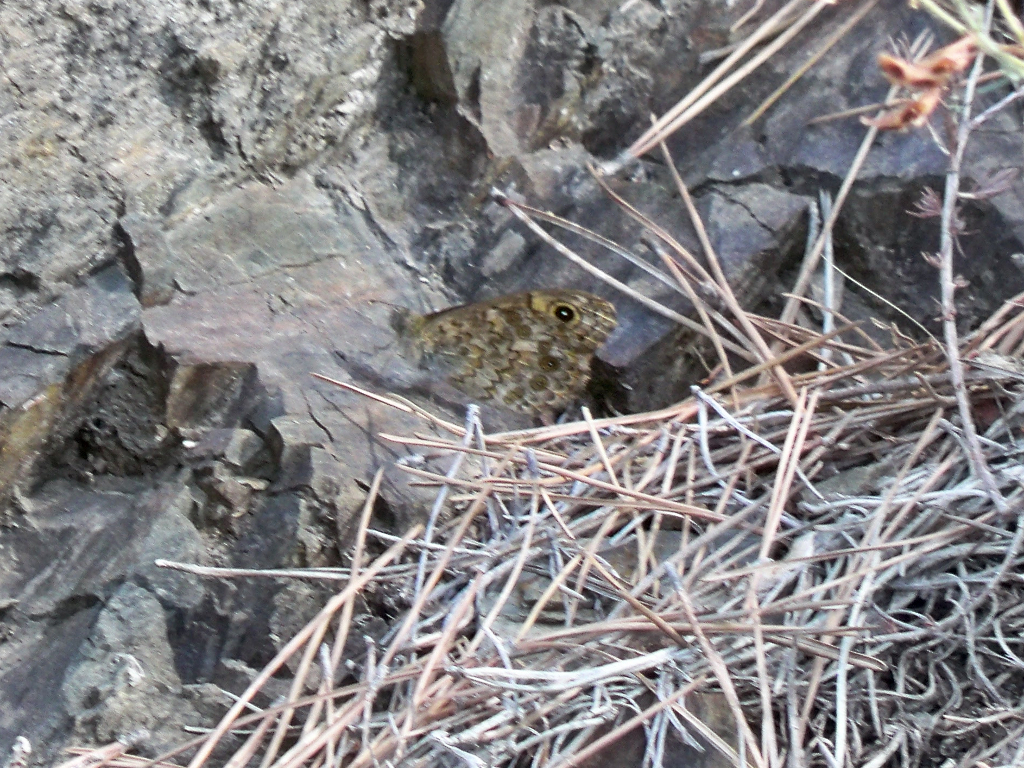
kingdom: Animalia
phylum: Arthropoda
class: Insecta
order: Lepidoptera
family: Nymphalidae
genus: Pararge
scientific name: Pararge Lasiommata megera
